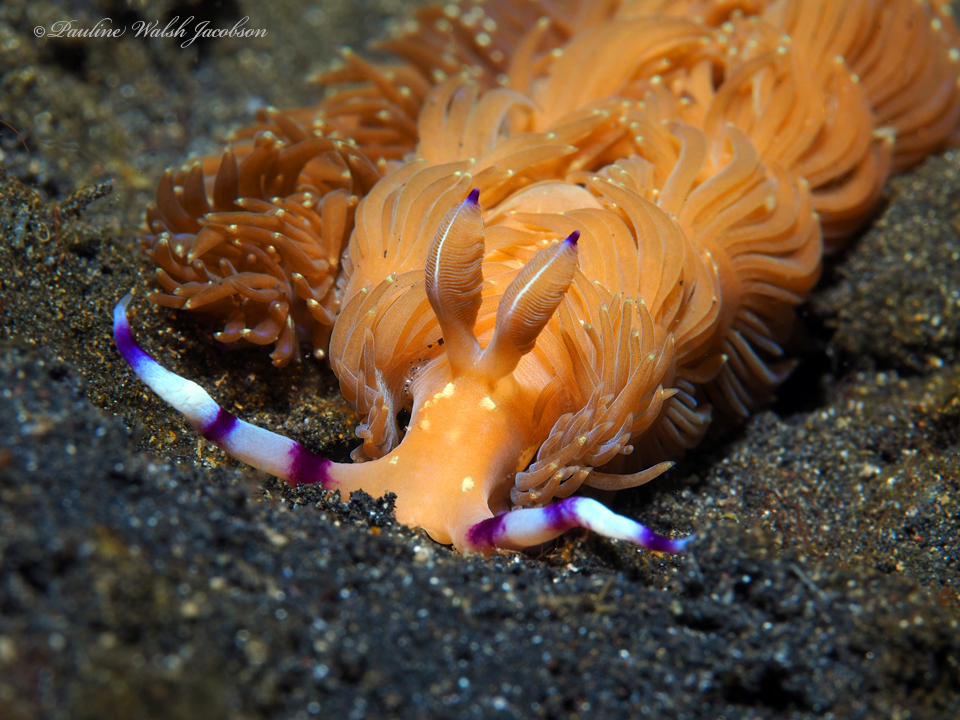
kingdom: Animalia
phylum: Mollusca
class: Gastropoda
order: Nudibranchia
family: Facelinidae
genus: Pteraeolidia
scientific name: Pteraeolidia semperi
